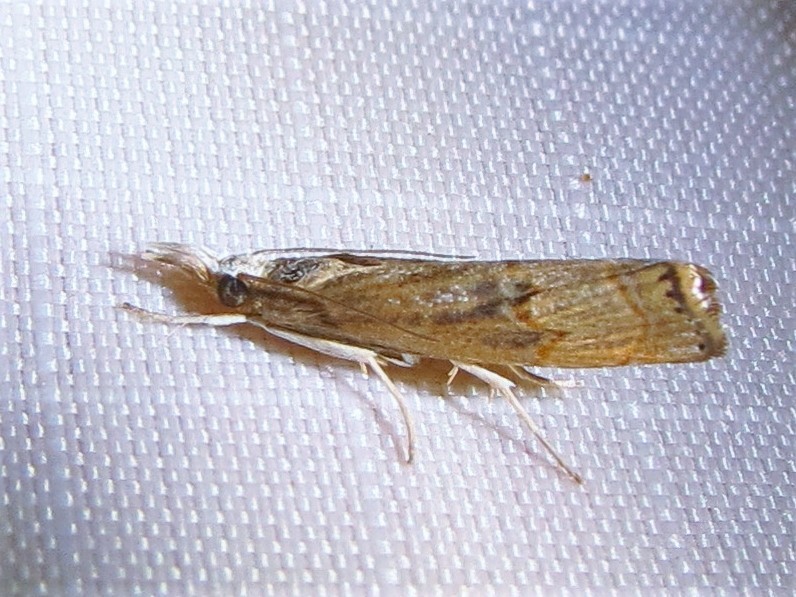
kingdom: Animalia
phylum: Arthropoda
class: Insecta
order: Lepidoptera
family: Crambidae
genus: Parapediasia
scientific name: Parapediasia teterellus
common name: Bluegrass webworm moth
